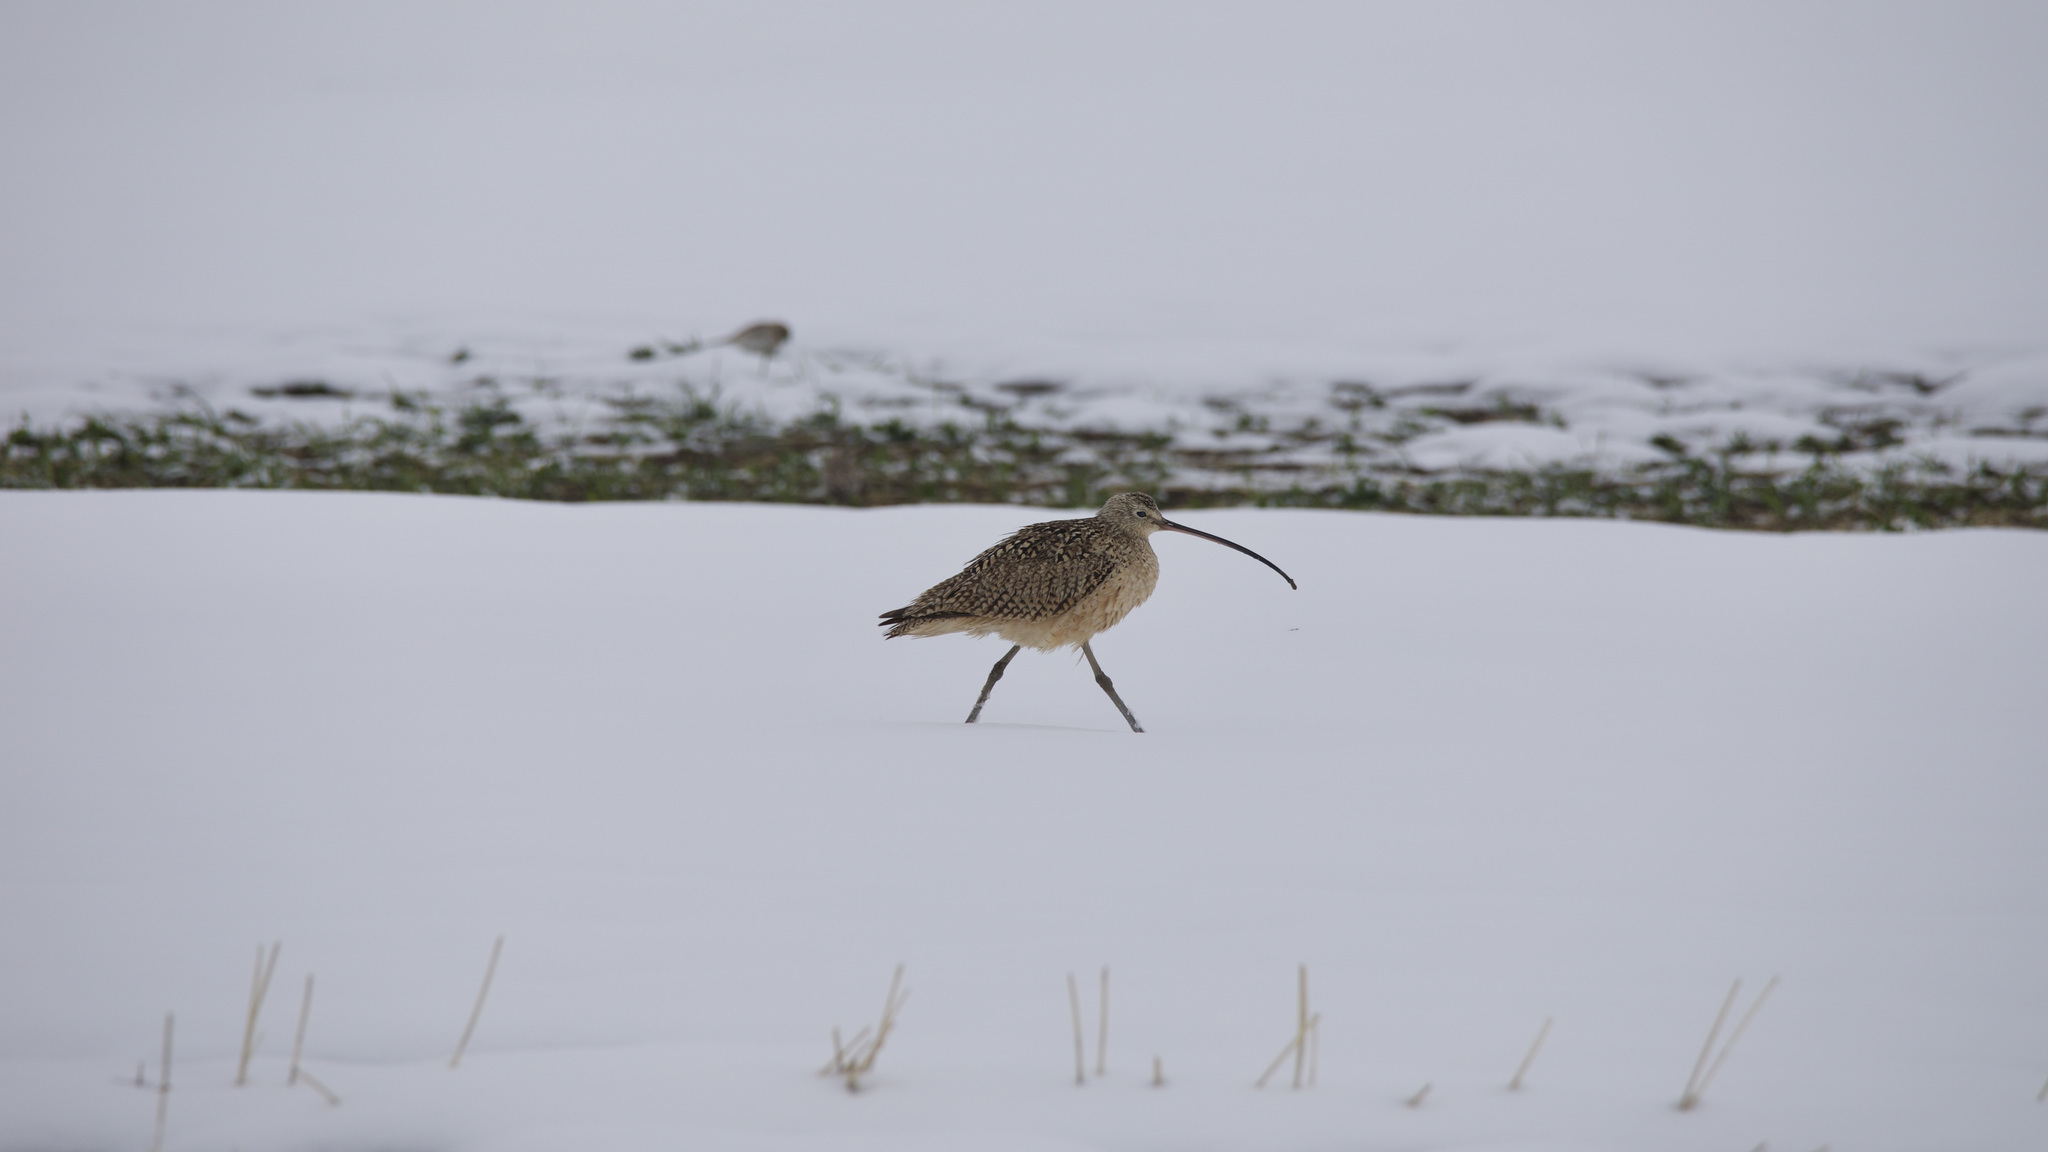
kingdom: Animalia
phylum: Chordata
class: Aves
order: Charadriiformes
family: Scolopacidae
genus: Numenius
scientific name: Numenius americanus
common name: Long-billed curlew
